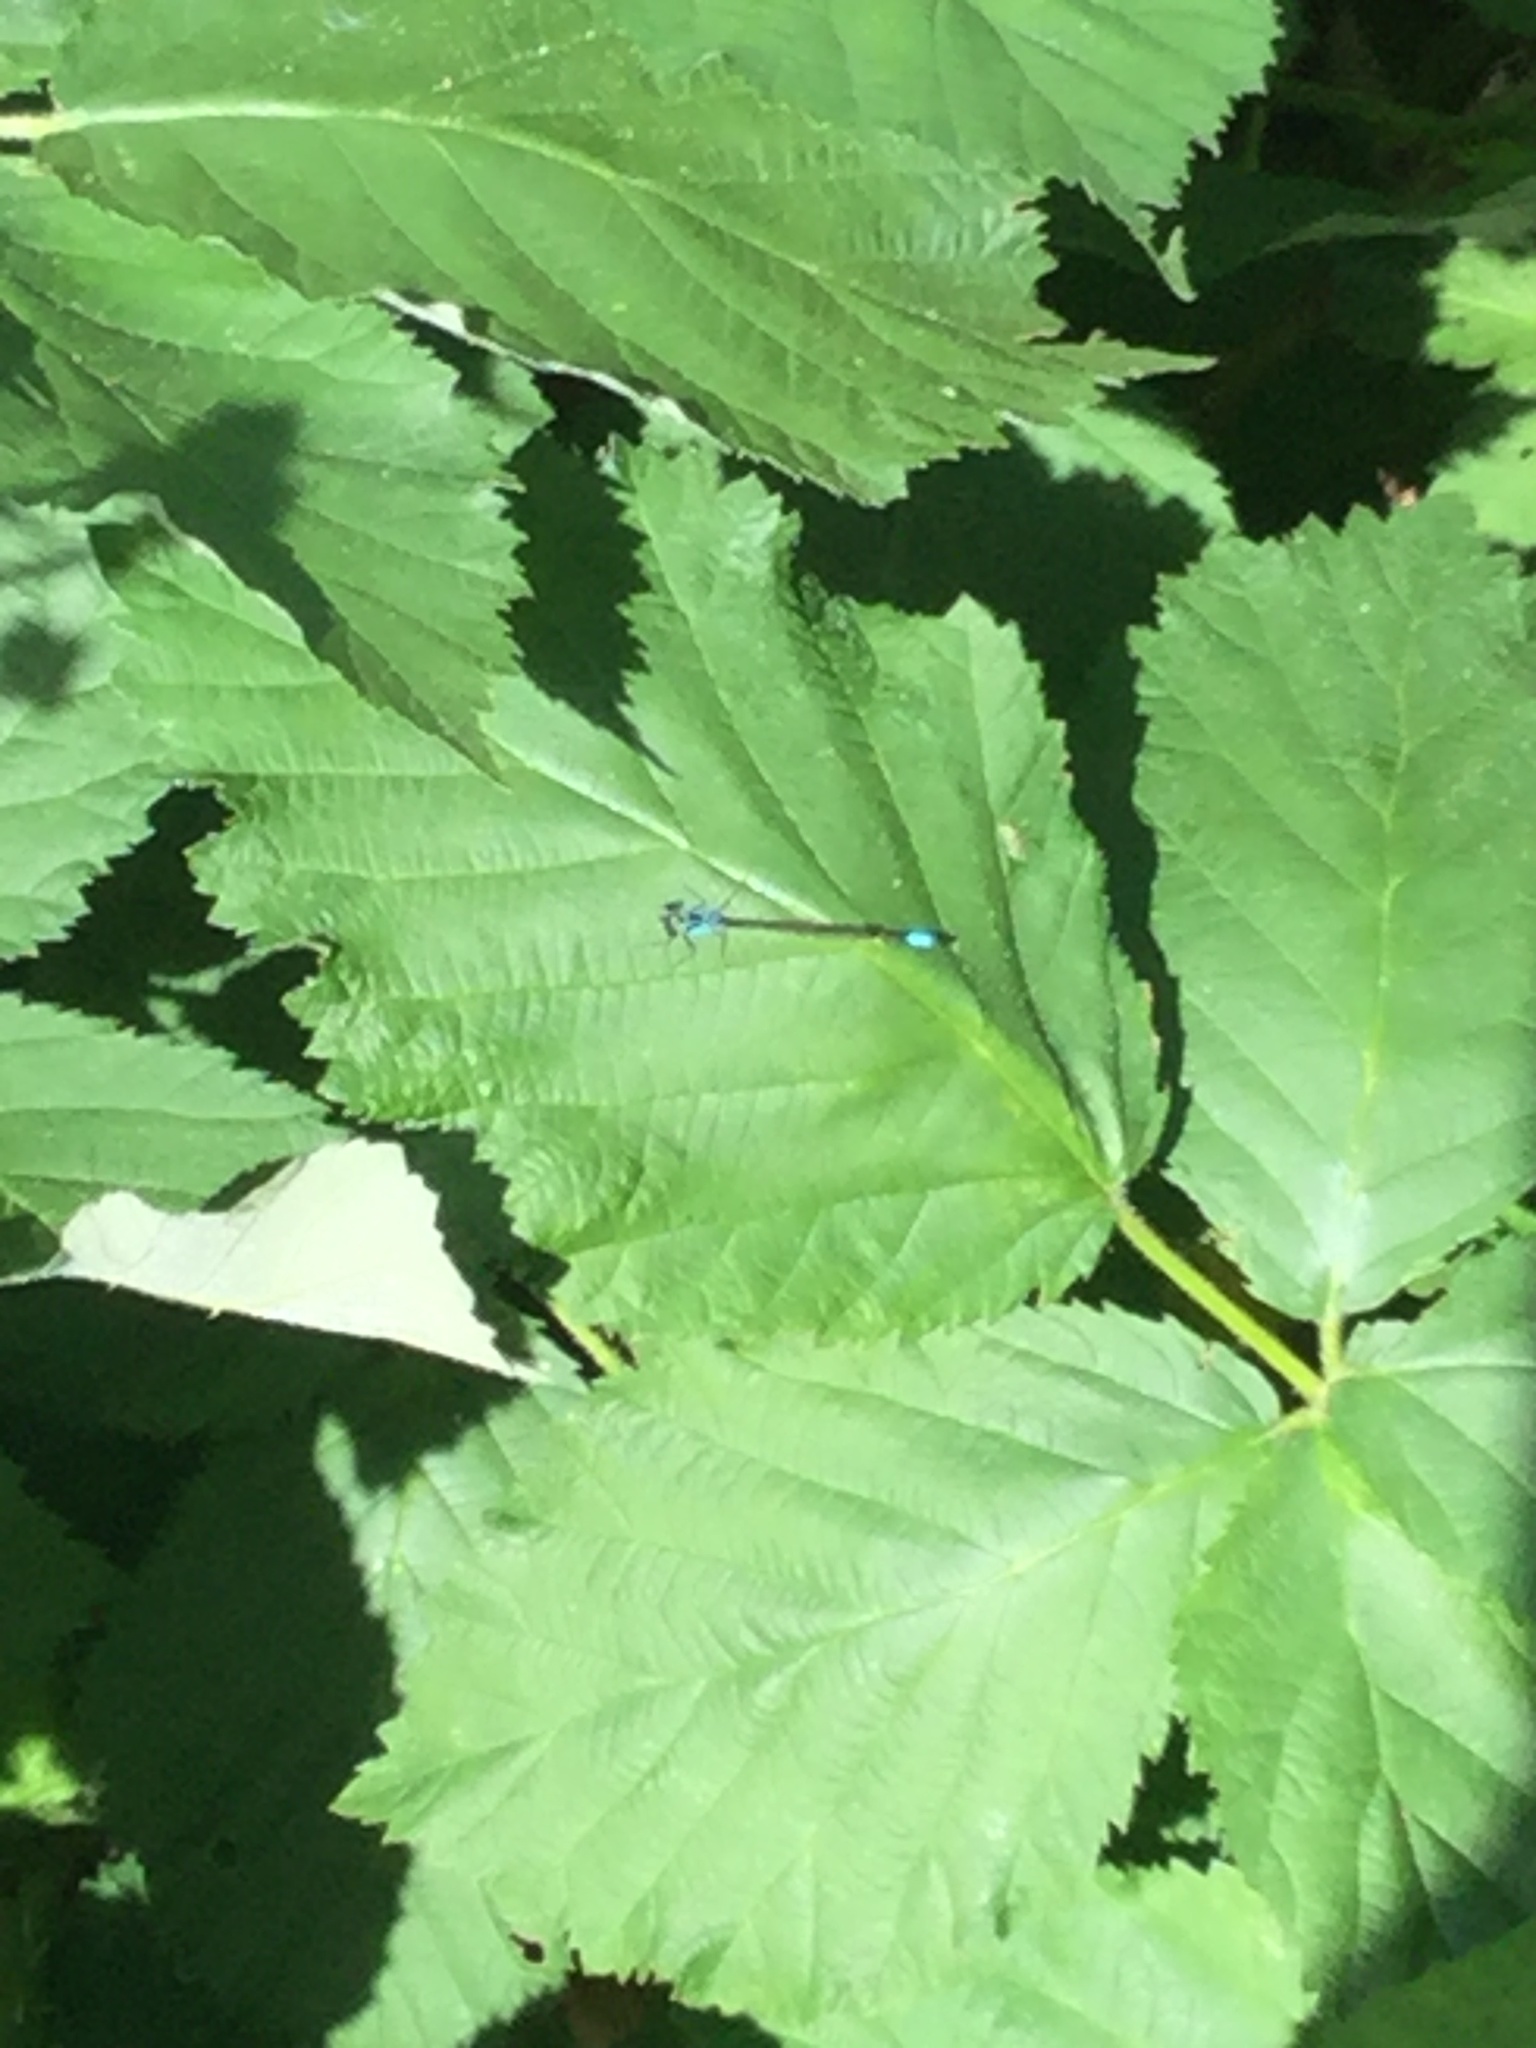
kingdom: Animalia
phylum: Arthropoda
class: Insecta
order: Odonata
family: Coenagrionidae
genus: Ischnura
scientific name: Ischnura cervula
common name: Pacific forktail
